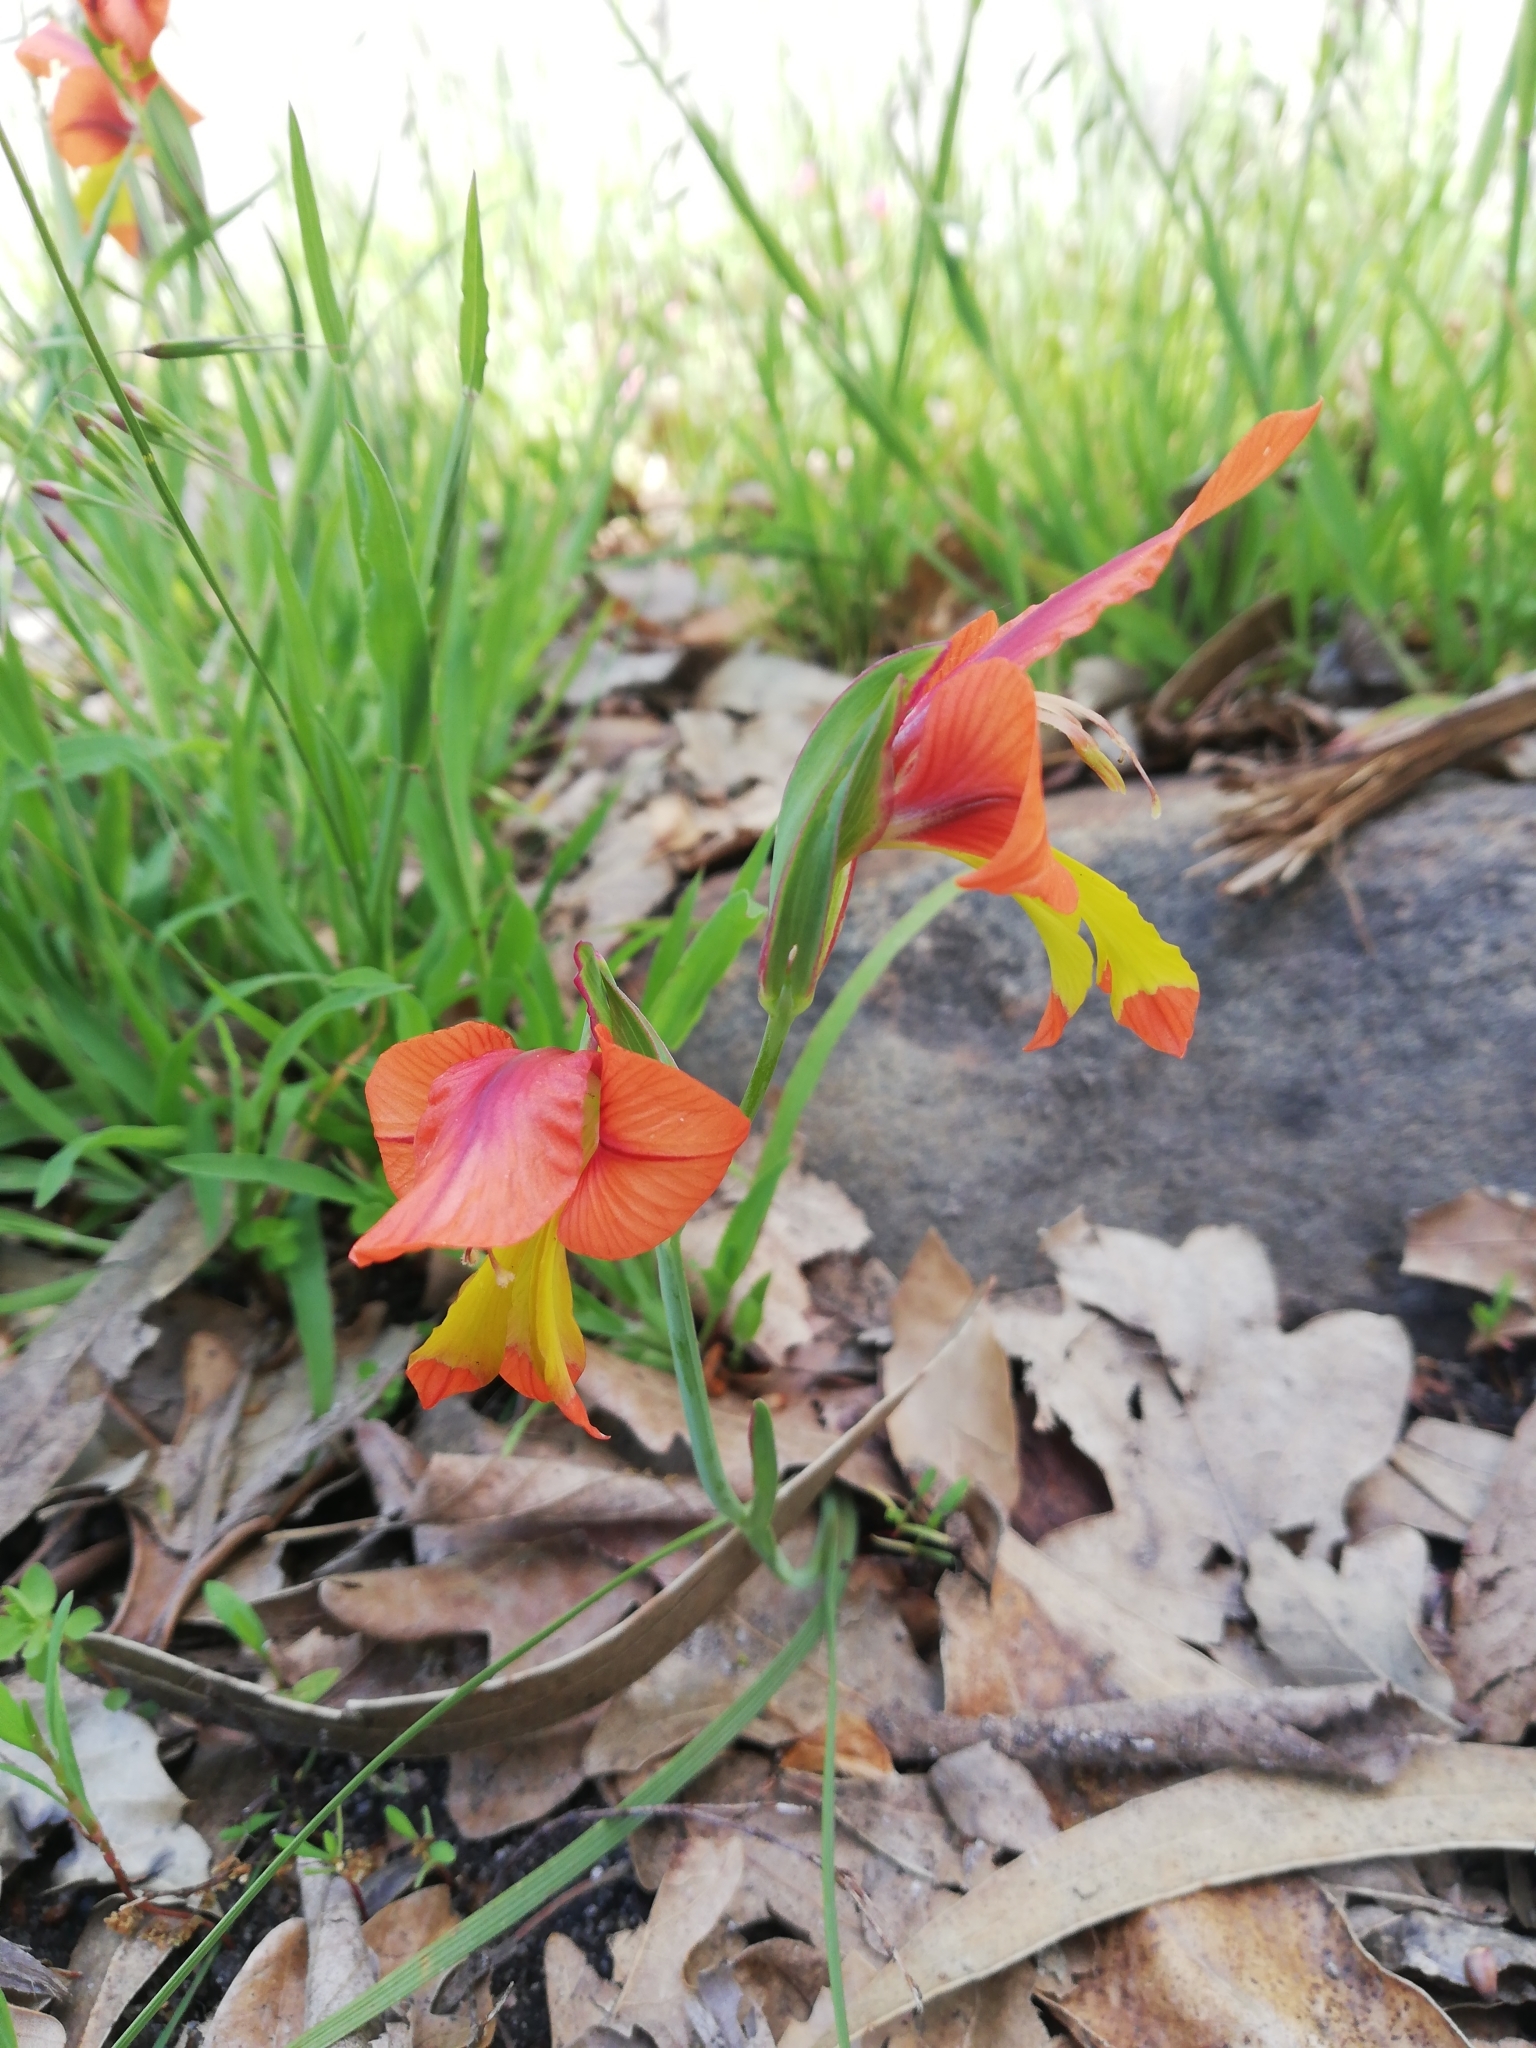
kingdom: Plantae
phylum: Tracheophyta
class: Liliopsida
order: Asparagales
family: Iridaceae
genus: Gladiolus
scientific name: Gladiolus alatus
